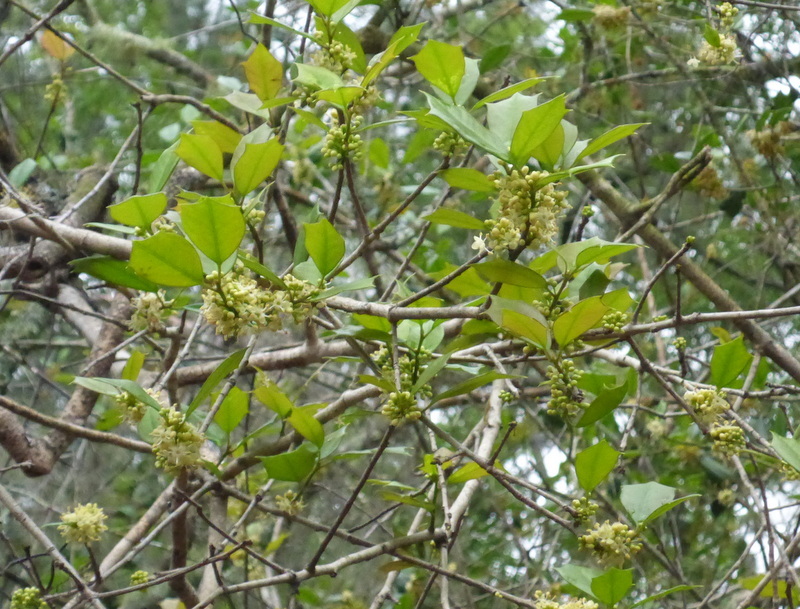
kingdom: Plantae
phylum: Tracheophyta
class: Magnoliopsida
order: Aquifoliales
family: Aquifoliaceae
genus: Ilex
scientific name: Ilex opaca
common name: American holly
